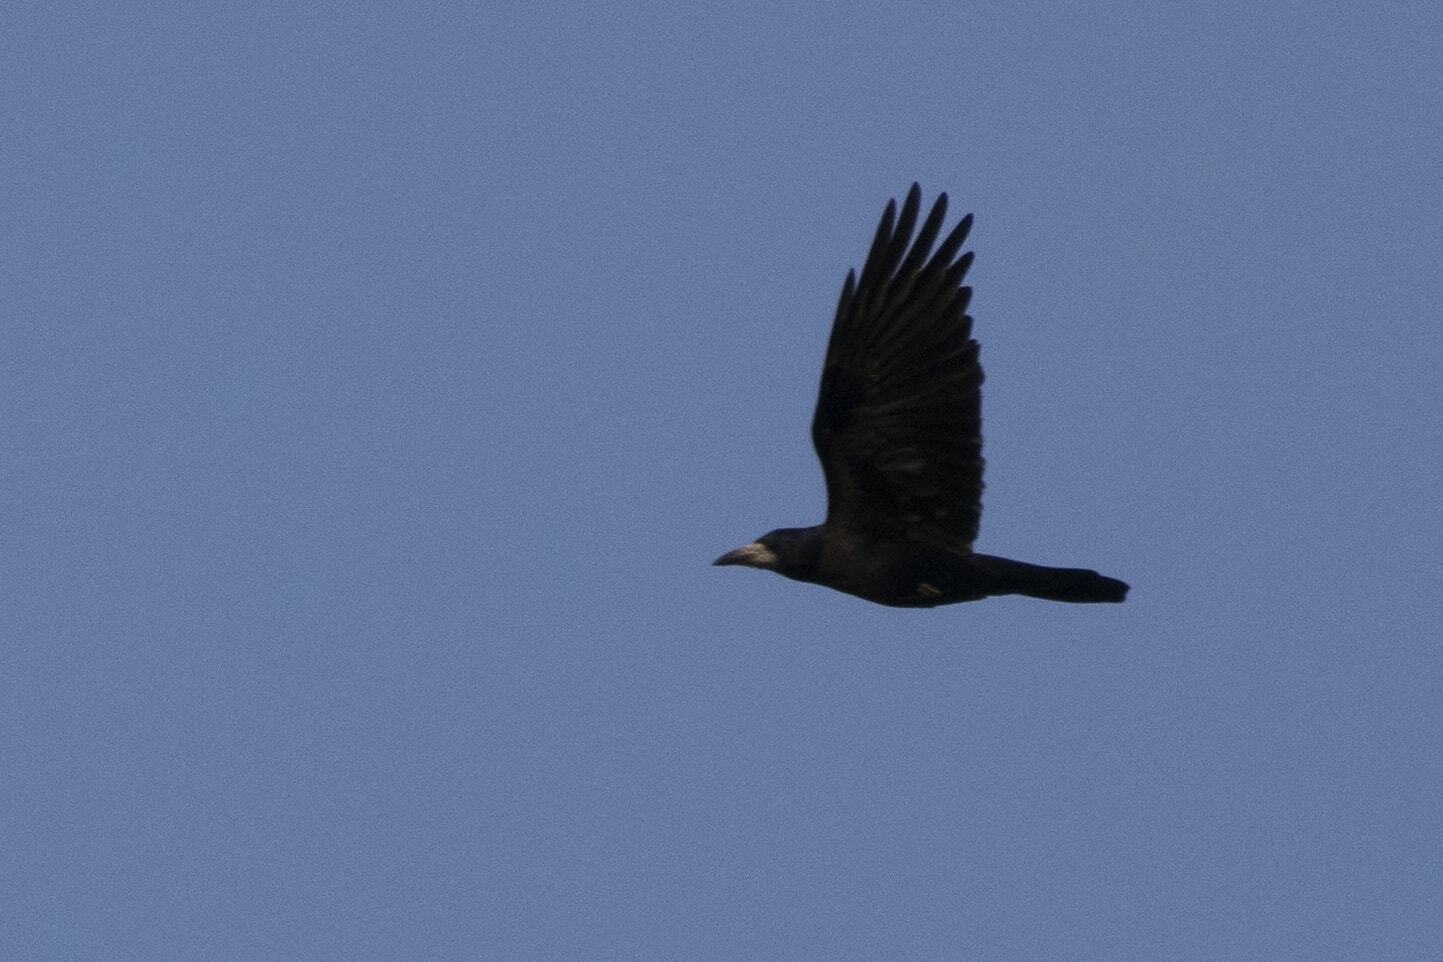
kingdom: Animalia
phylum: Chordata
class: Aves
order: Passeriformes
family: Corvidae
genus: Corvus
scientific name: Corvus frugilegus
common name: Rook
